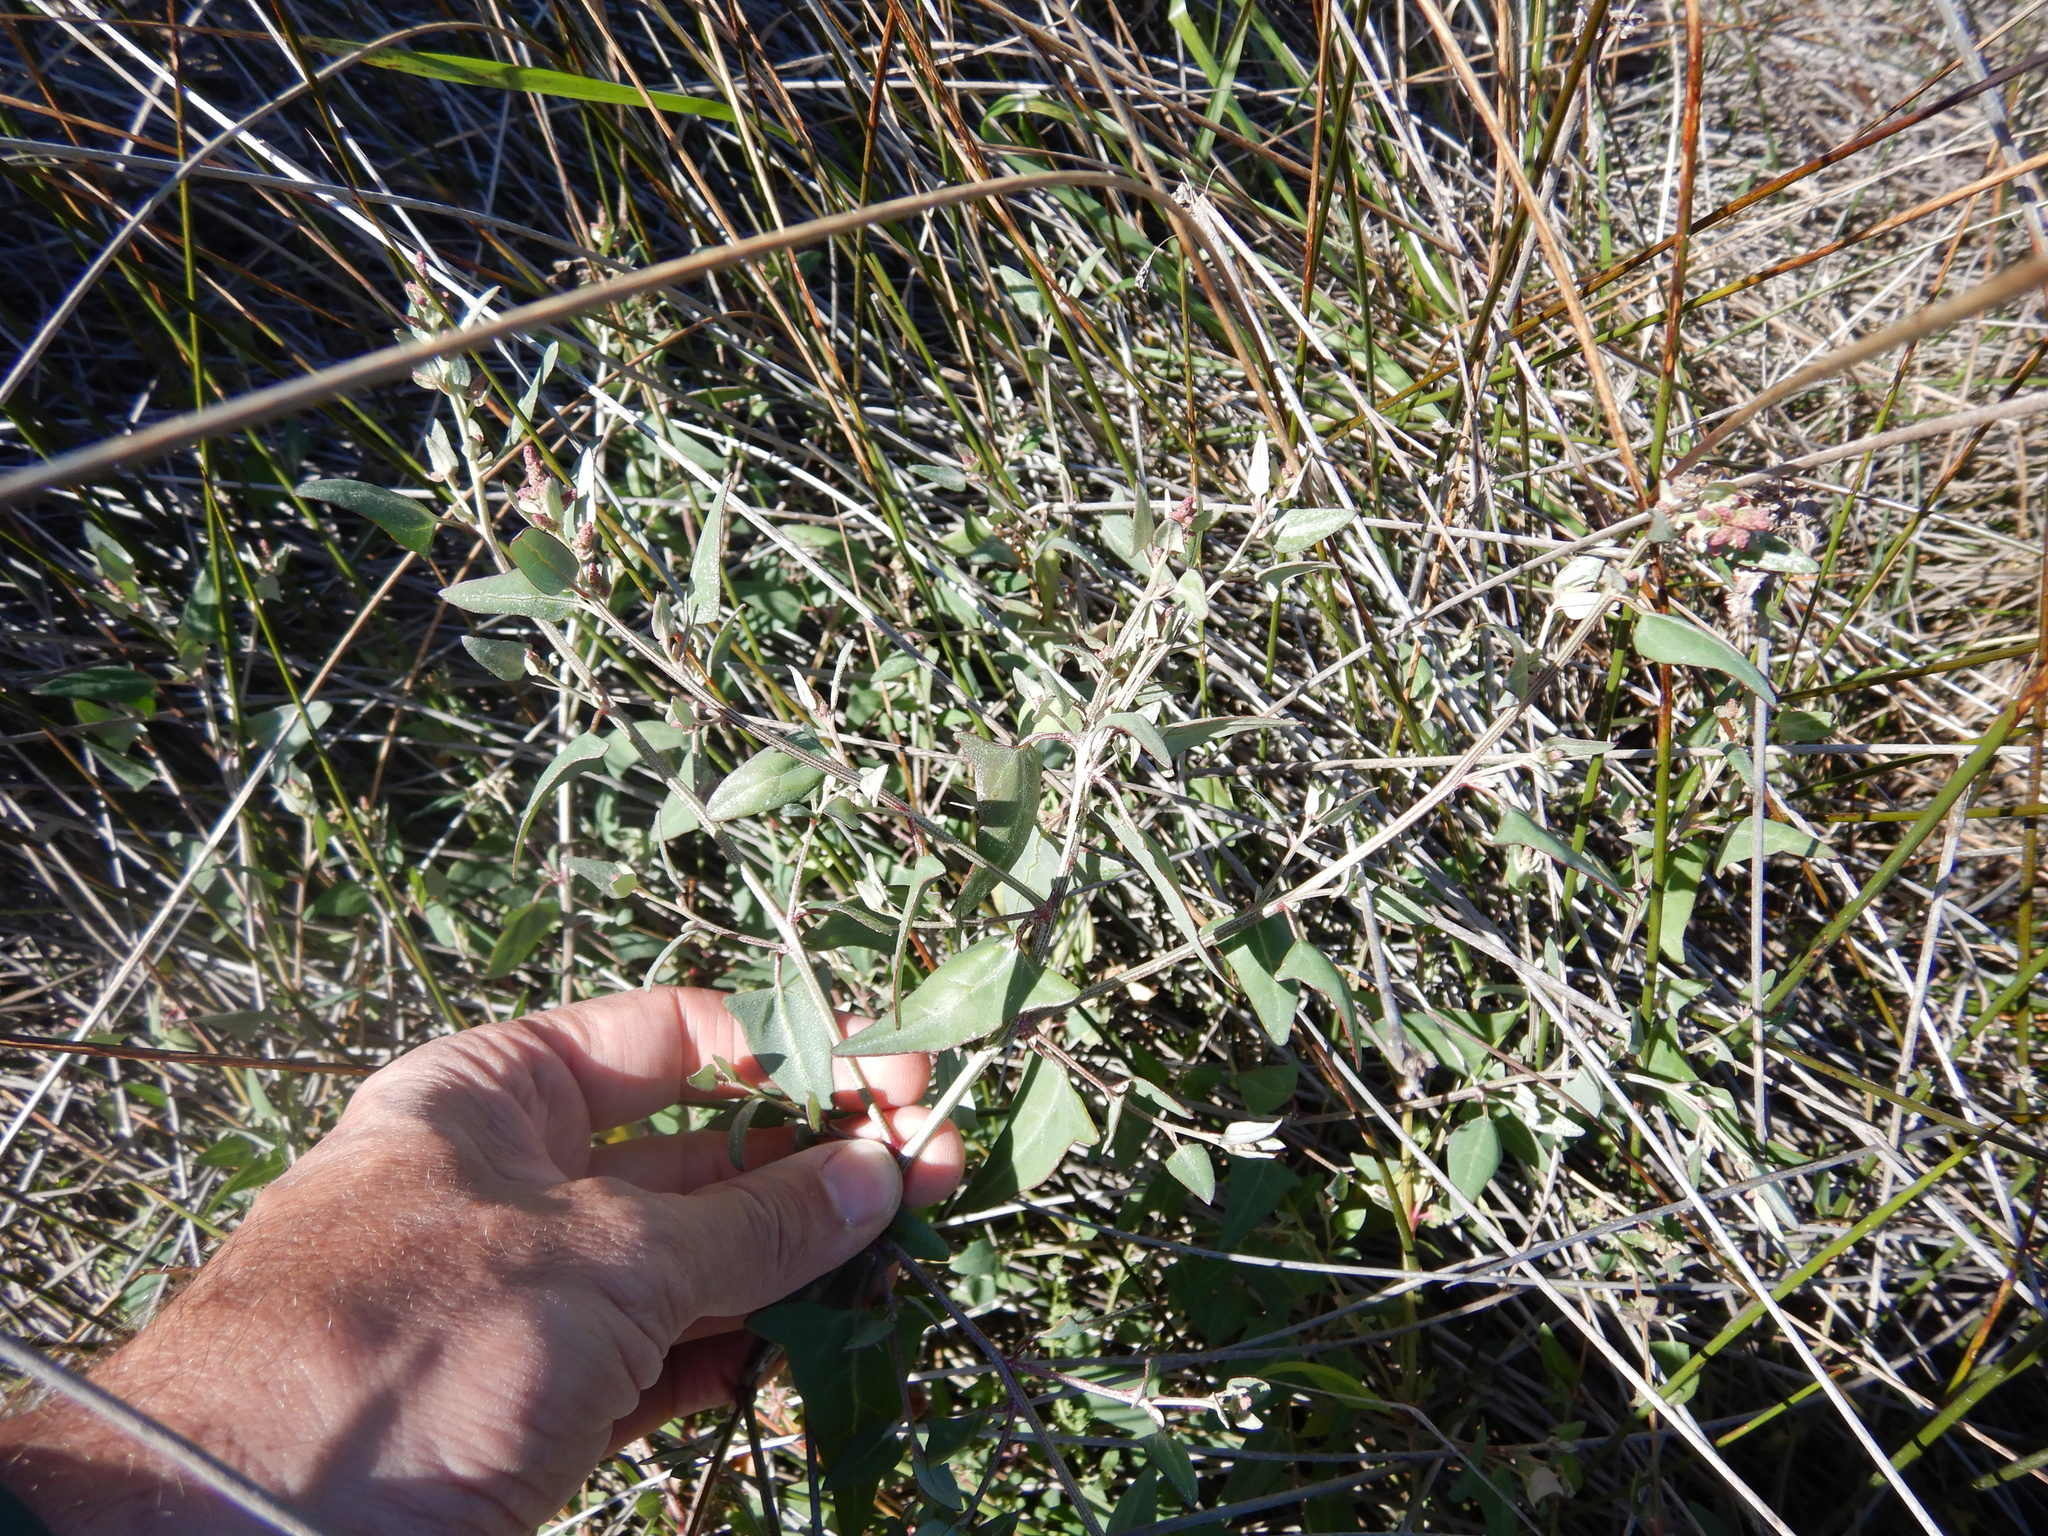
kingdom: Plantae
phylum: Tracheophyta
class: Magnoliopsida
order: Caryophyllales
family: Amaranthaceae
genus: Atriplex
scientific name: Atriplex prostrata
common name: Spear-leaved orache
